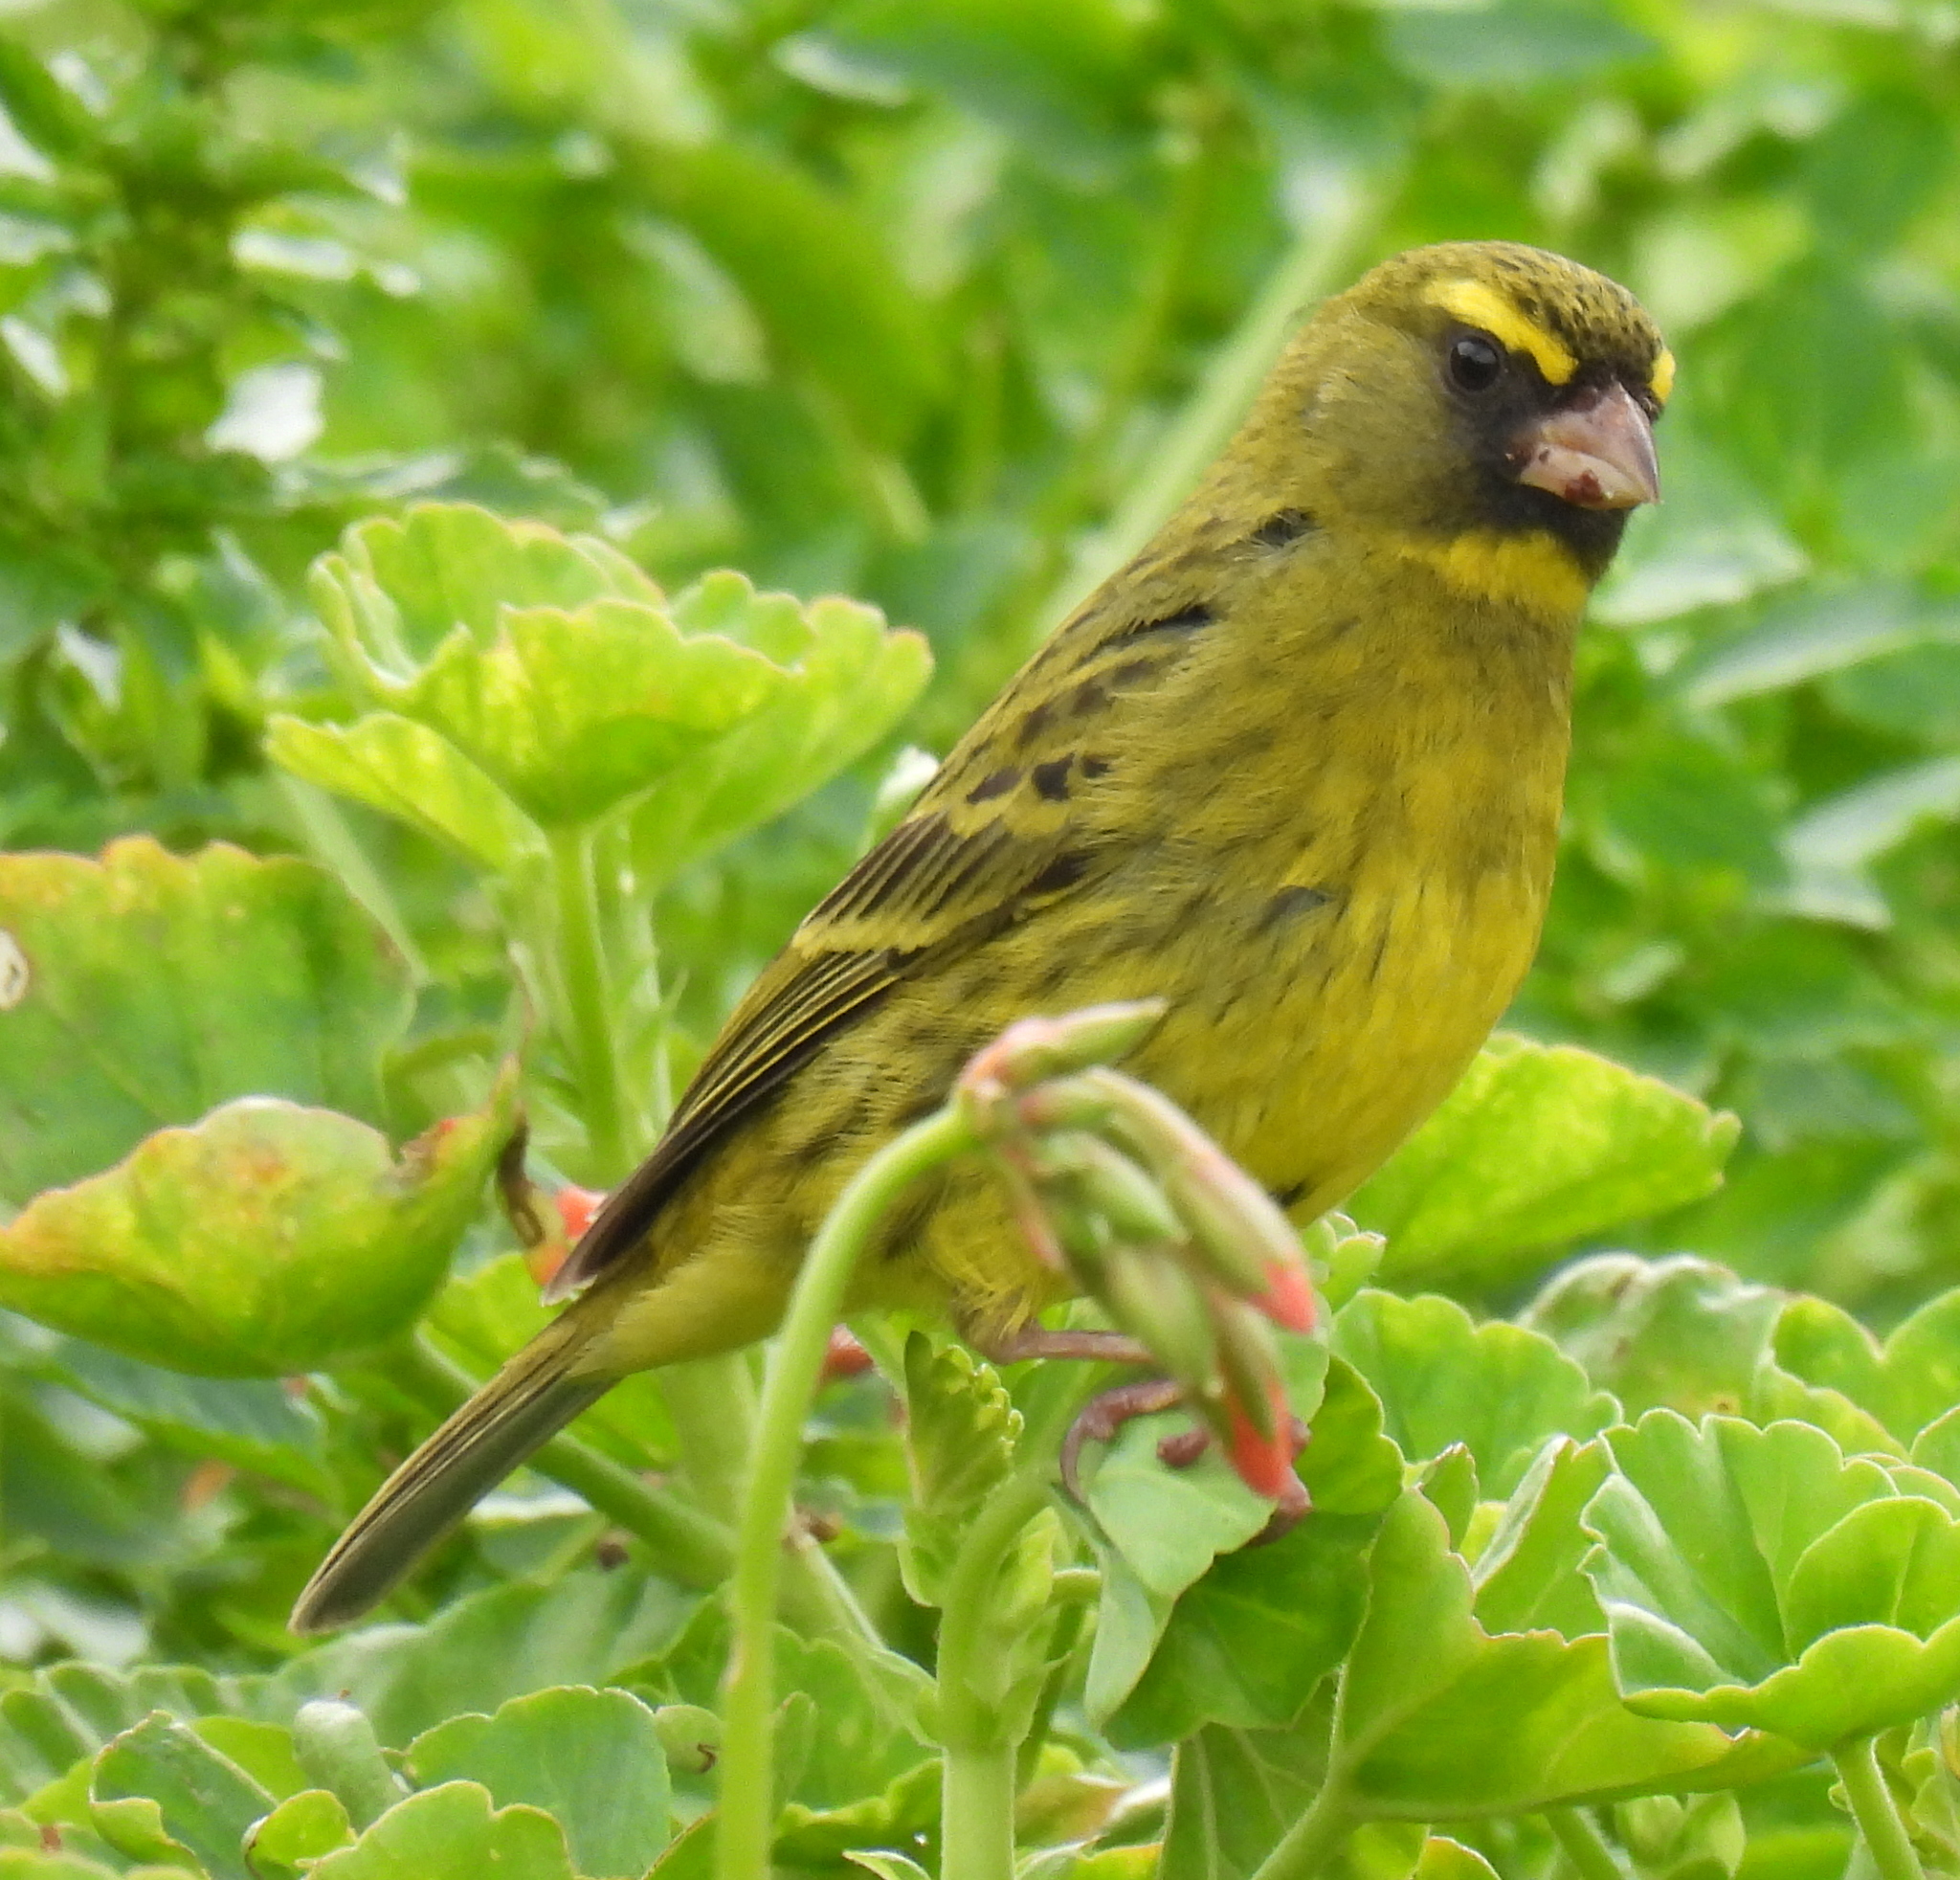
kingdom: Animalia
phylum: Chordata
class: Aves
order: Passeriformes
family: Fringillidae
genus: Crithagra
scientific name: Crithagra scotops
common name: Forest canary
